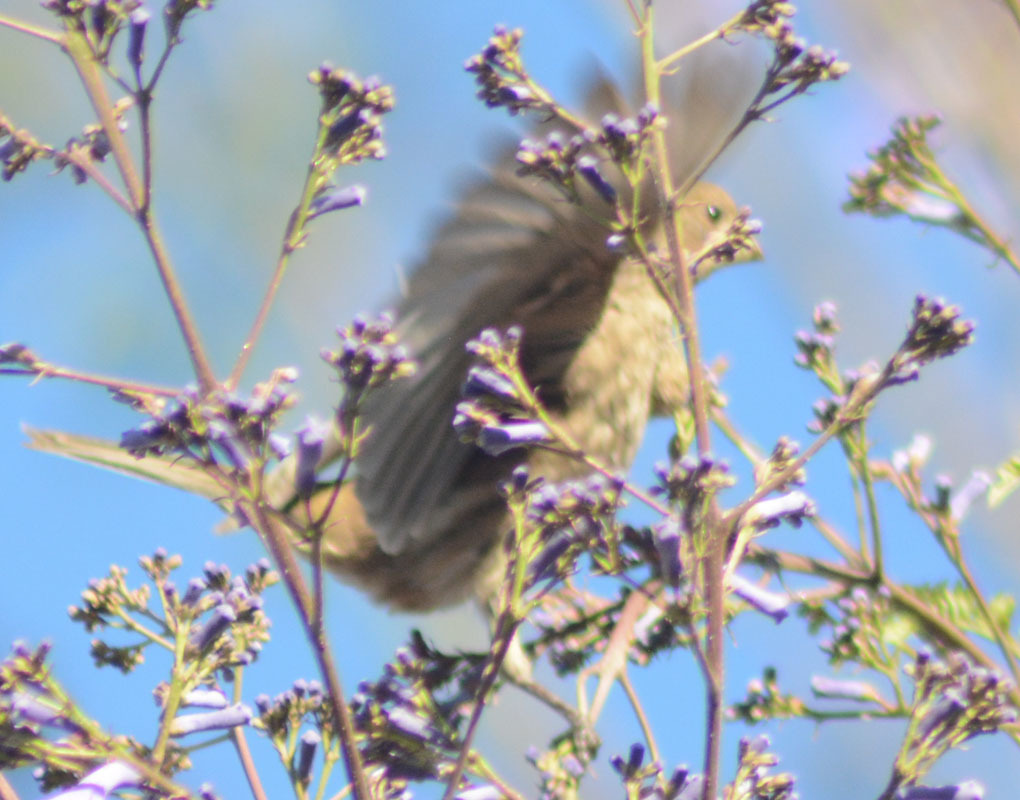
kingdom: Animalia
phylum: Chordata
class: Aves
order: Passeriformes
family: Fringillidae
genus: Haemorhous
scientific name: Haemorhous mexicanus
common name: House finch
